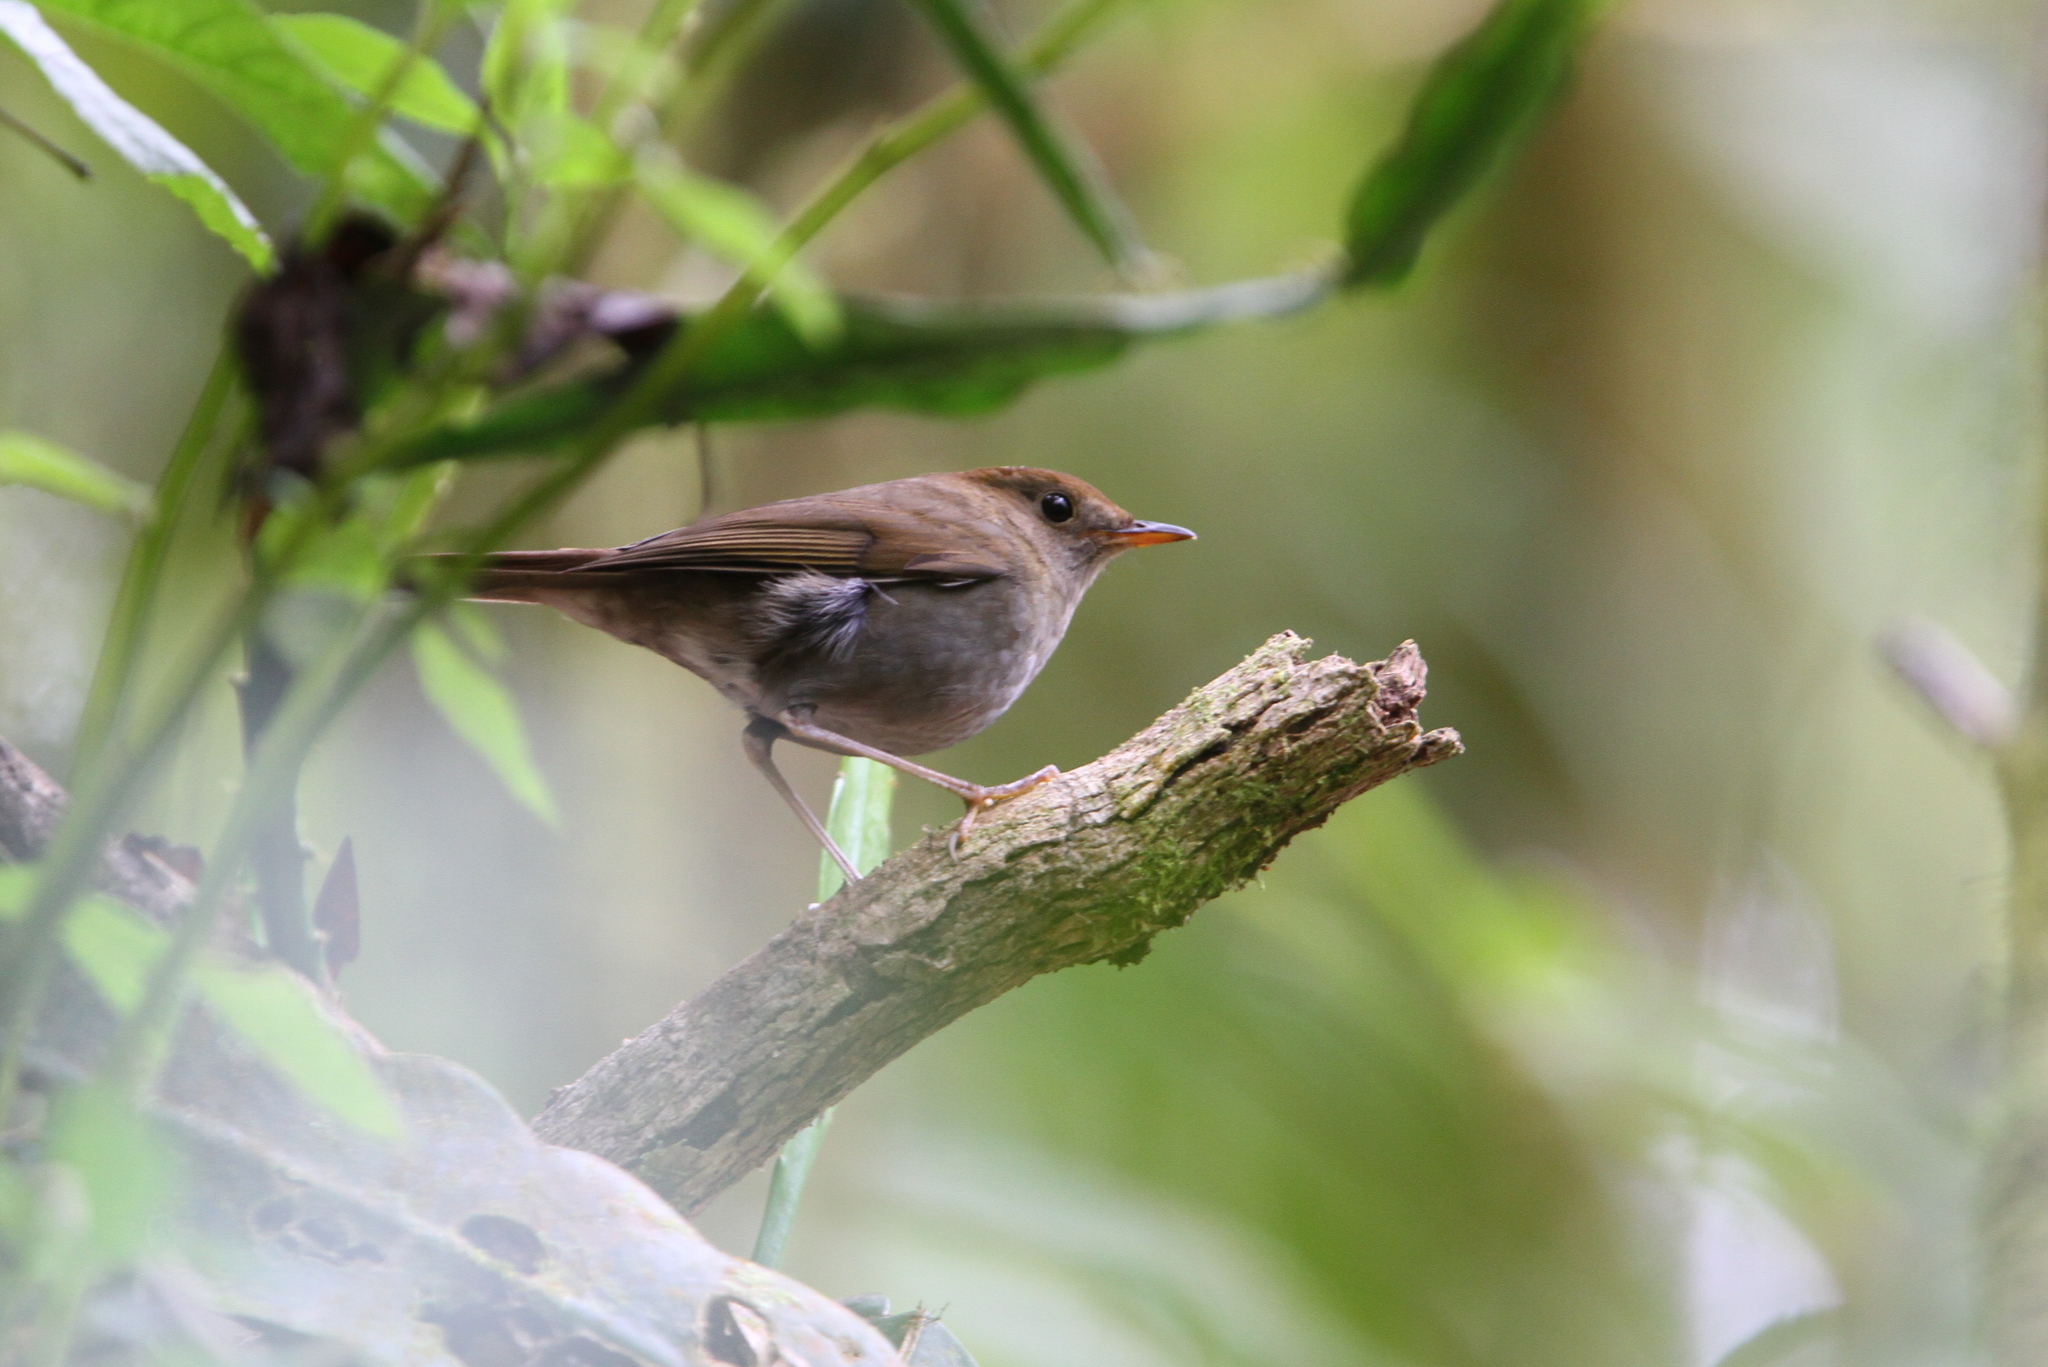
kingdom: Animalia
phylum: Chordata
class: Aves
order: Passeriformes
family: Turdidae
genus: Catharus
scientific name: Catharus frantzii
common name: Ruddy-capped nightingale-thrush
